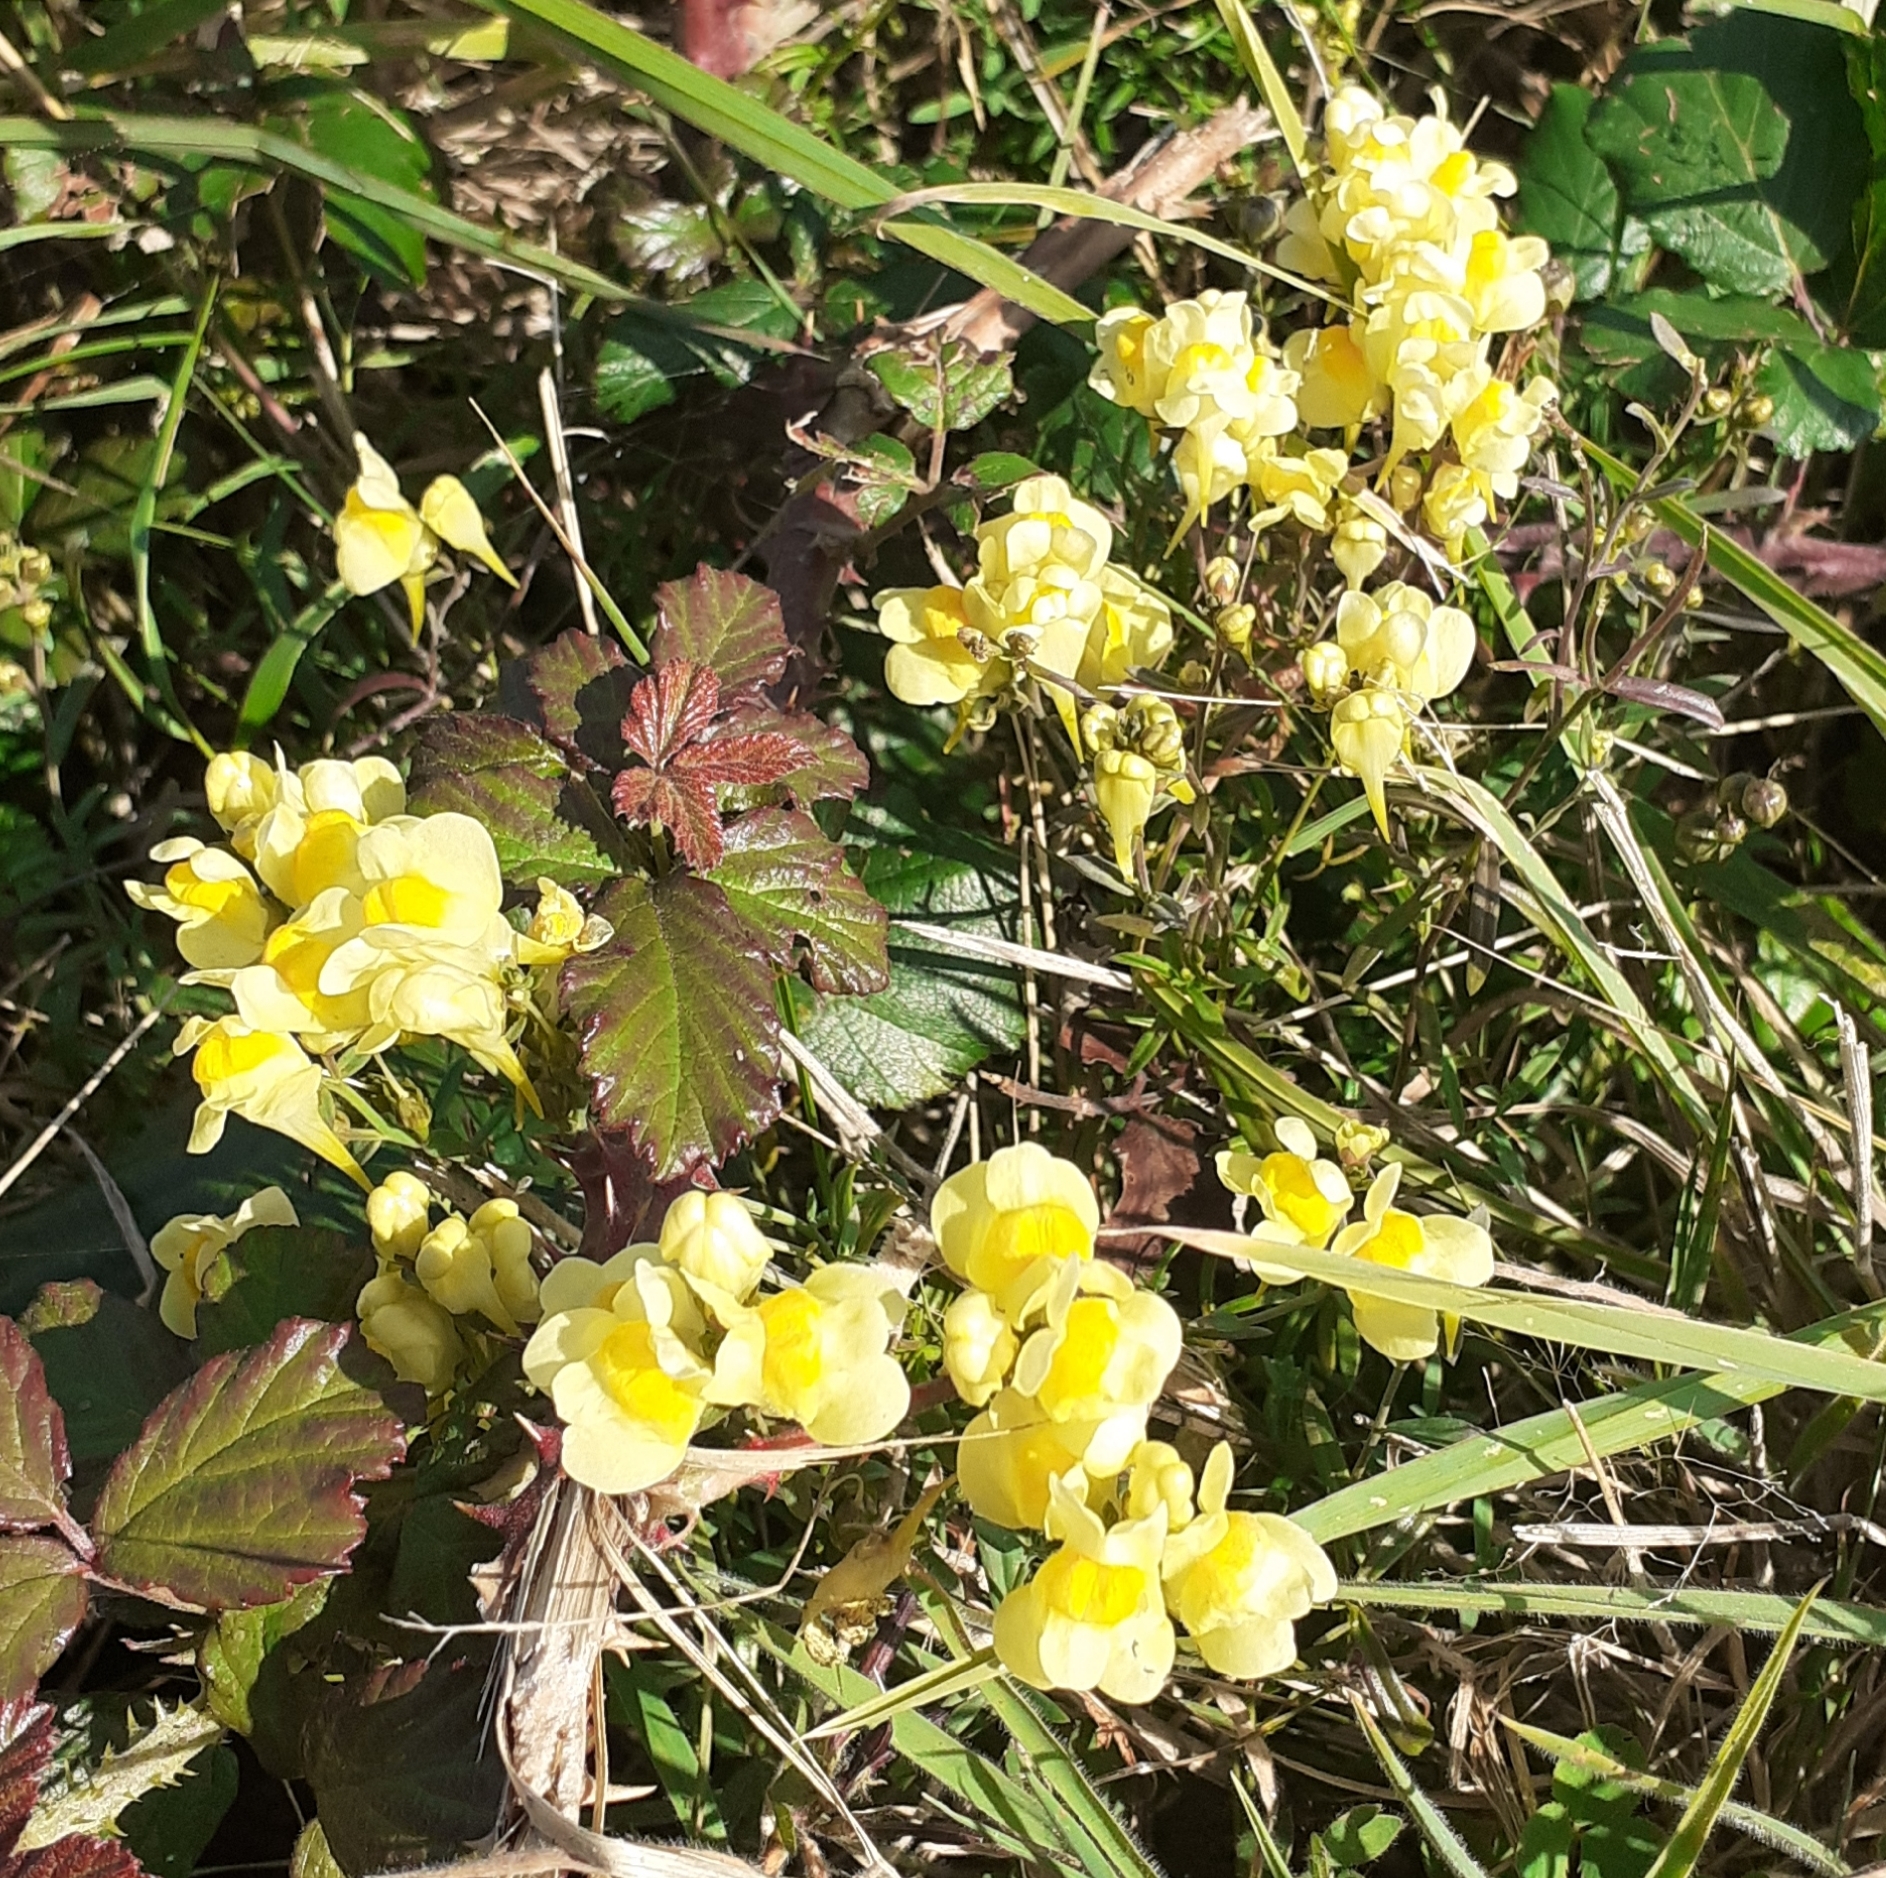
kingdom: Plantae
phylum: Tracheophyta
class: Magnoliopsida
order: Lamiales
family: Plantaginaceae
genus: Linaria
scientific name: Linaria vulgaris
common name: Butter and eggs
